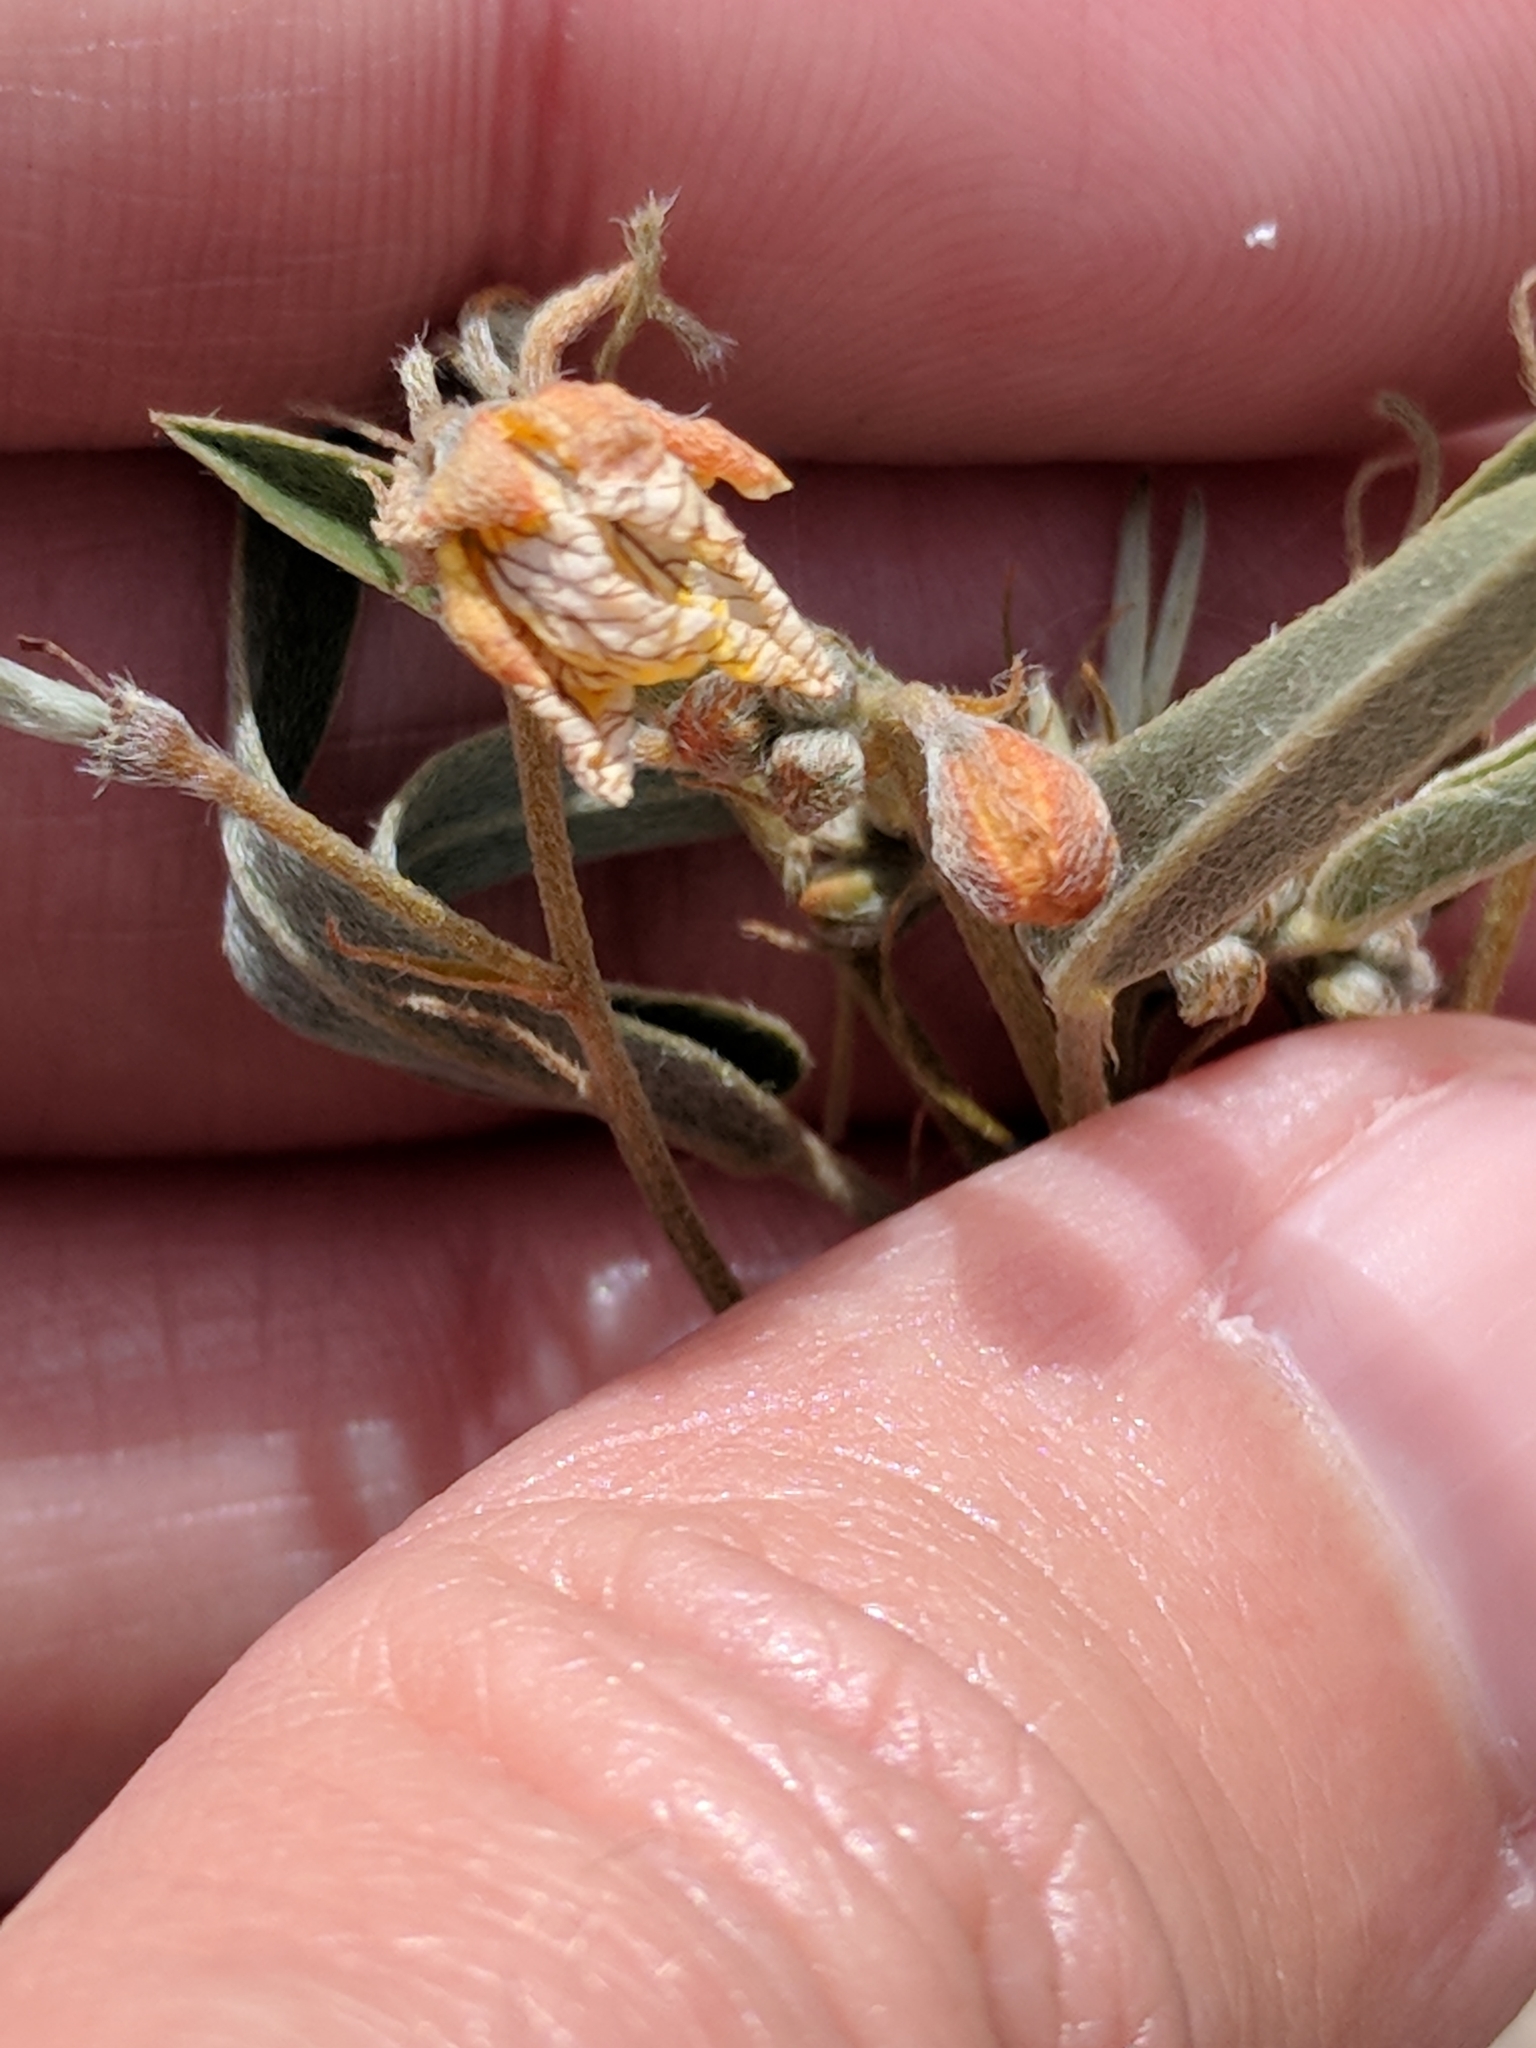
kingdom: Plantae
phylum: Tracheophyta
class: Magnoliopsida
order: Fabales
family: Fabaceae
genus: Senna
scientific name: Senna roemeriana
